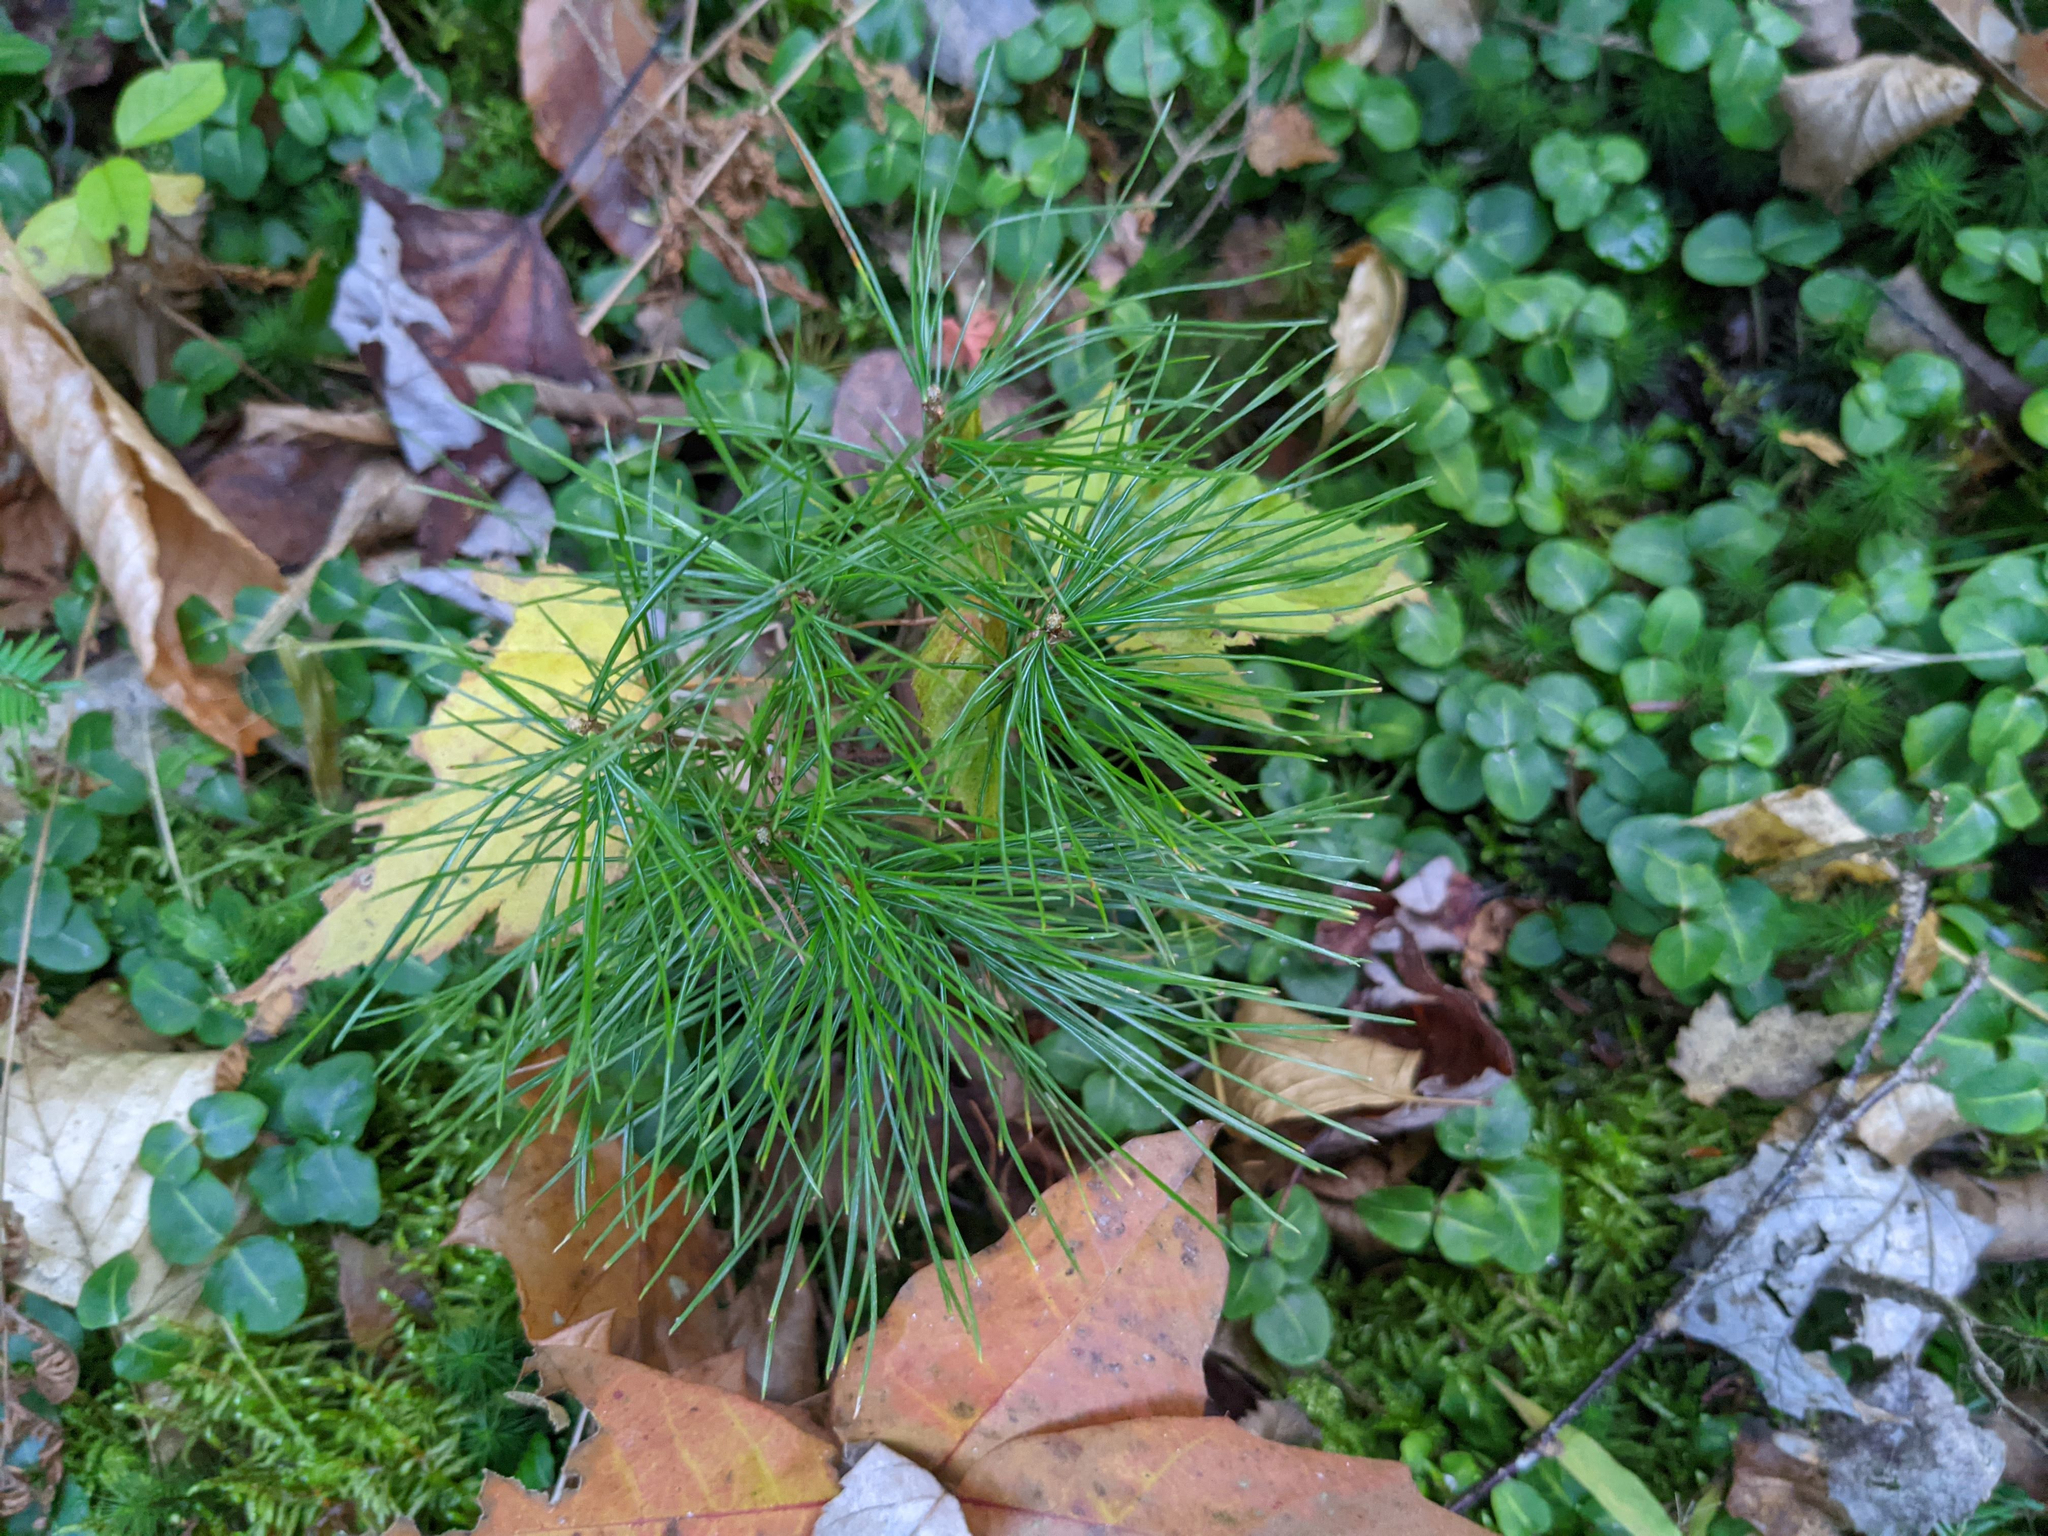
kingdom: Plantae
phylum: Tracheophyta
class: Pinopsida
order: Pinales
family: Pinaceae
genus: Pinus
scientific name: Pinus strobus
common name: Weymouth pine
